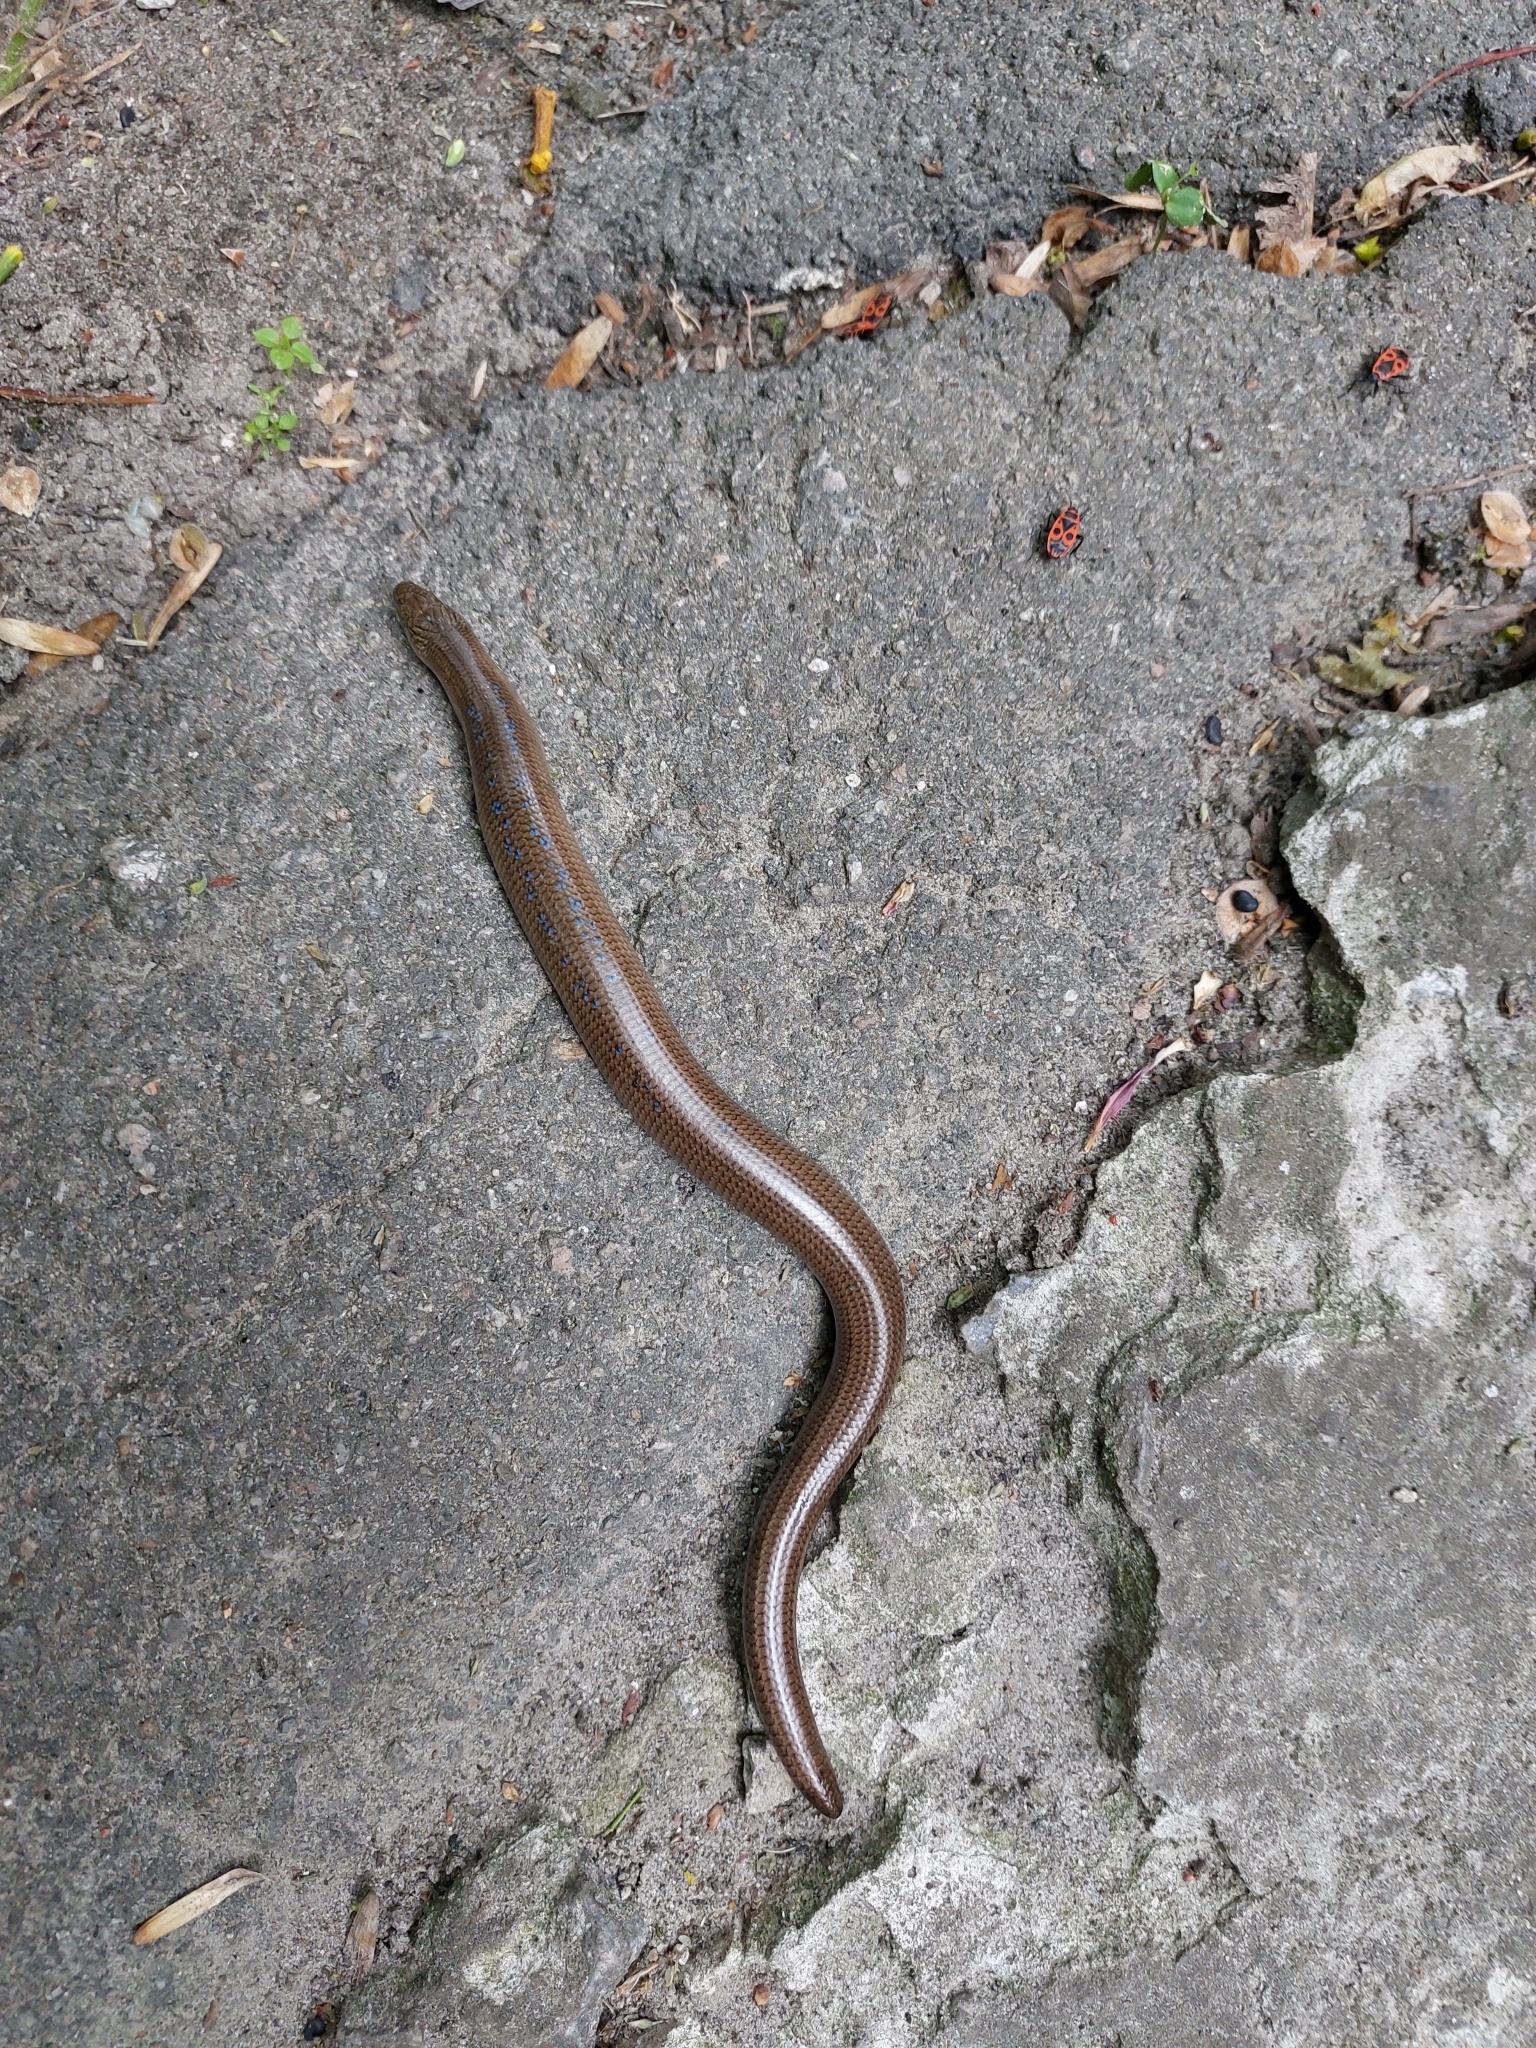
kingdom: Animalia
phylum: Chordata
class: Squamata
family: Anguidae
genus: Anguis
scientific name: Anguis colchica
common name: Slow worm
